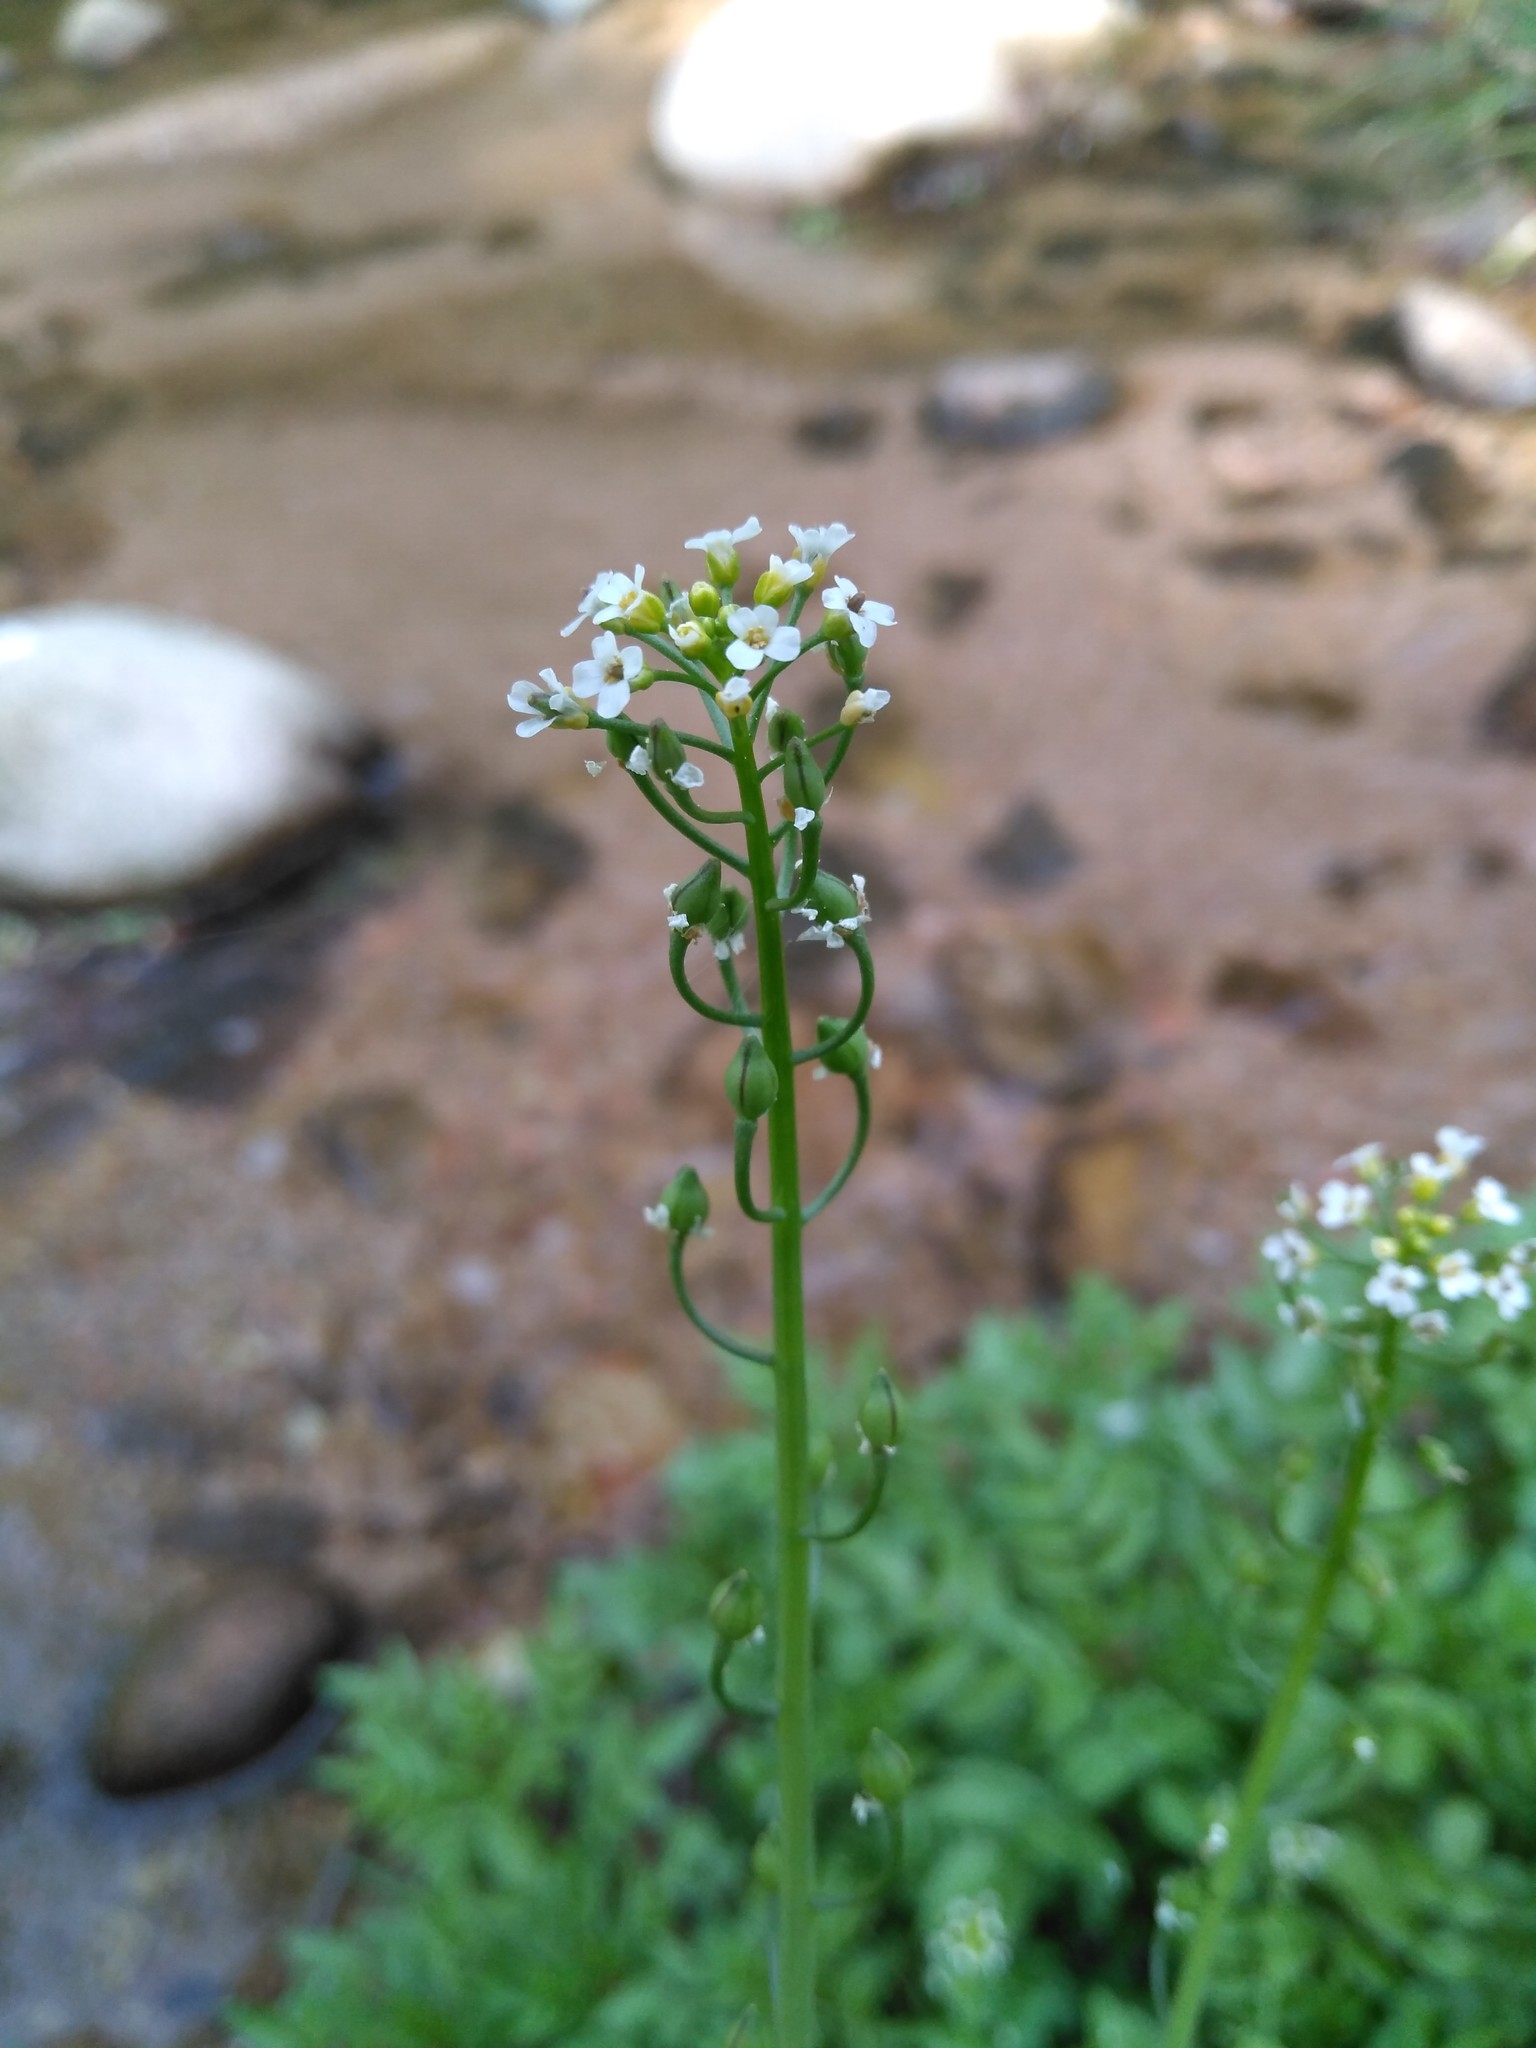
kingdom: Plantae
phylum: Tracheophyta
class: Magnoliopsida
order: Brassicales
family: Brassicaceae
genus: Calepina
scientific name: Calepina irregularis
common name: White ballmustard
